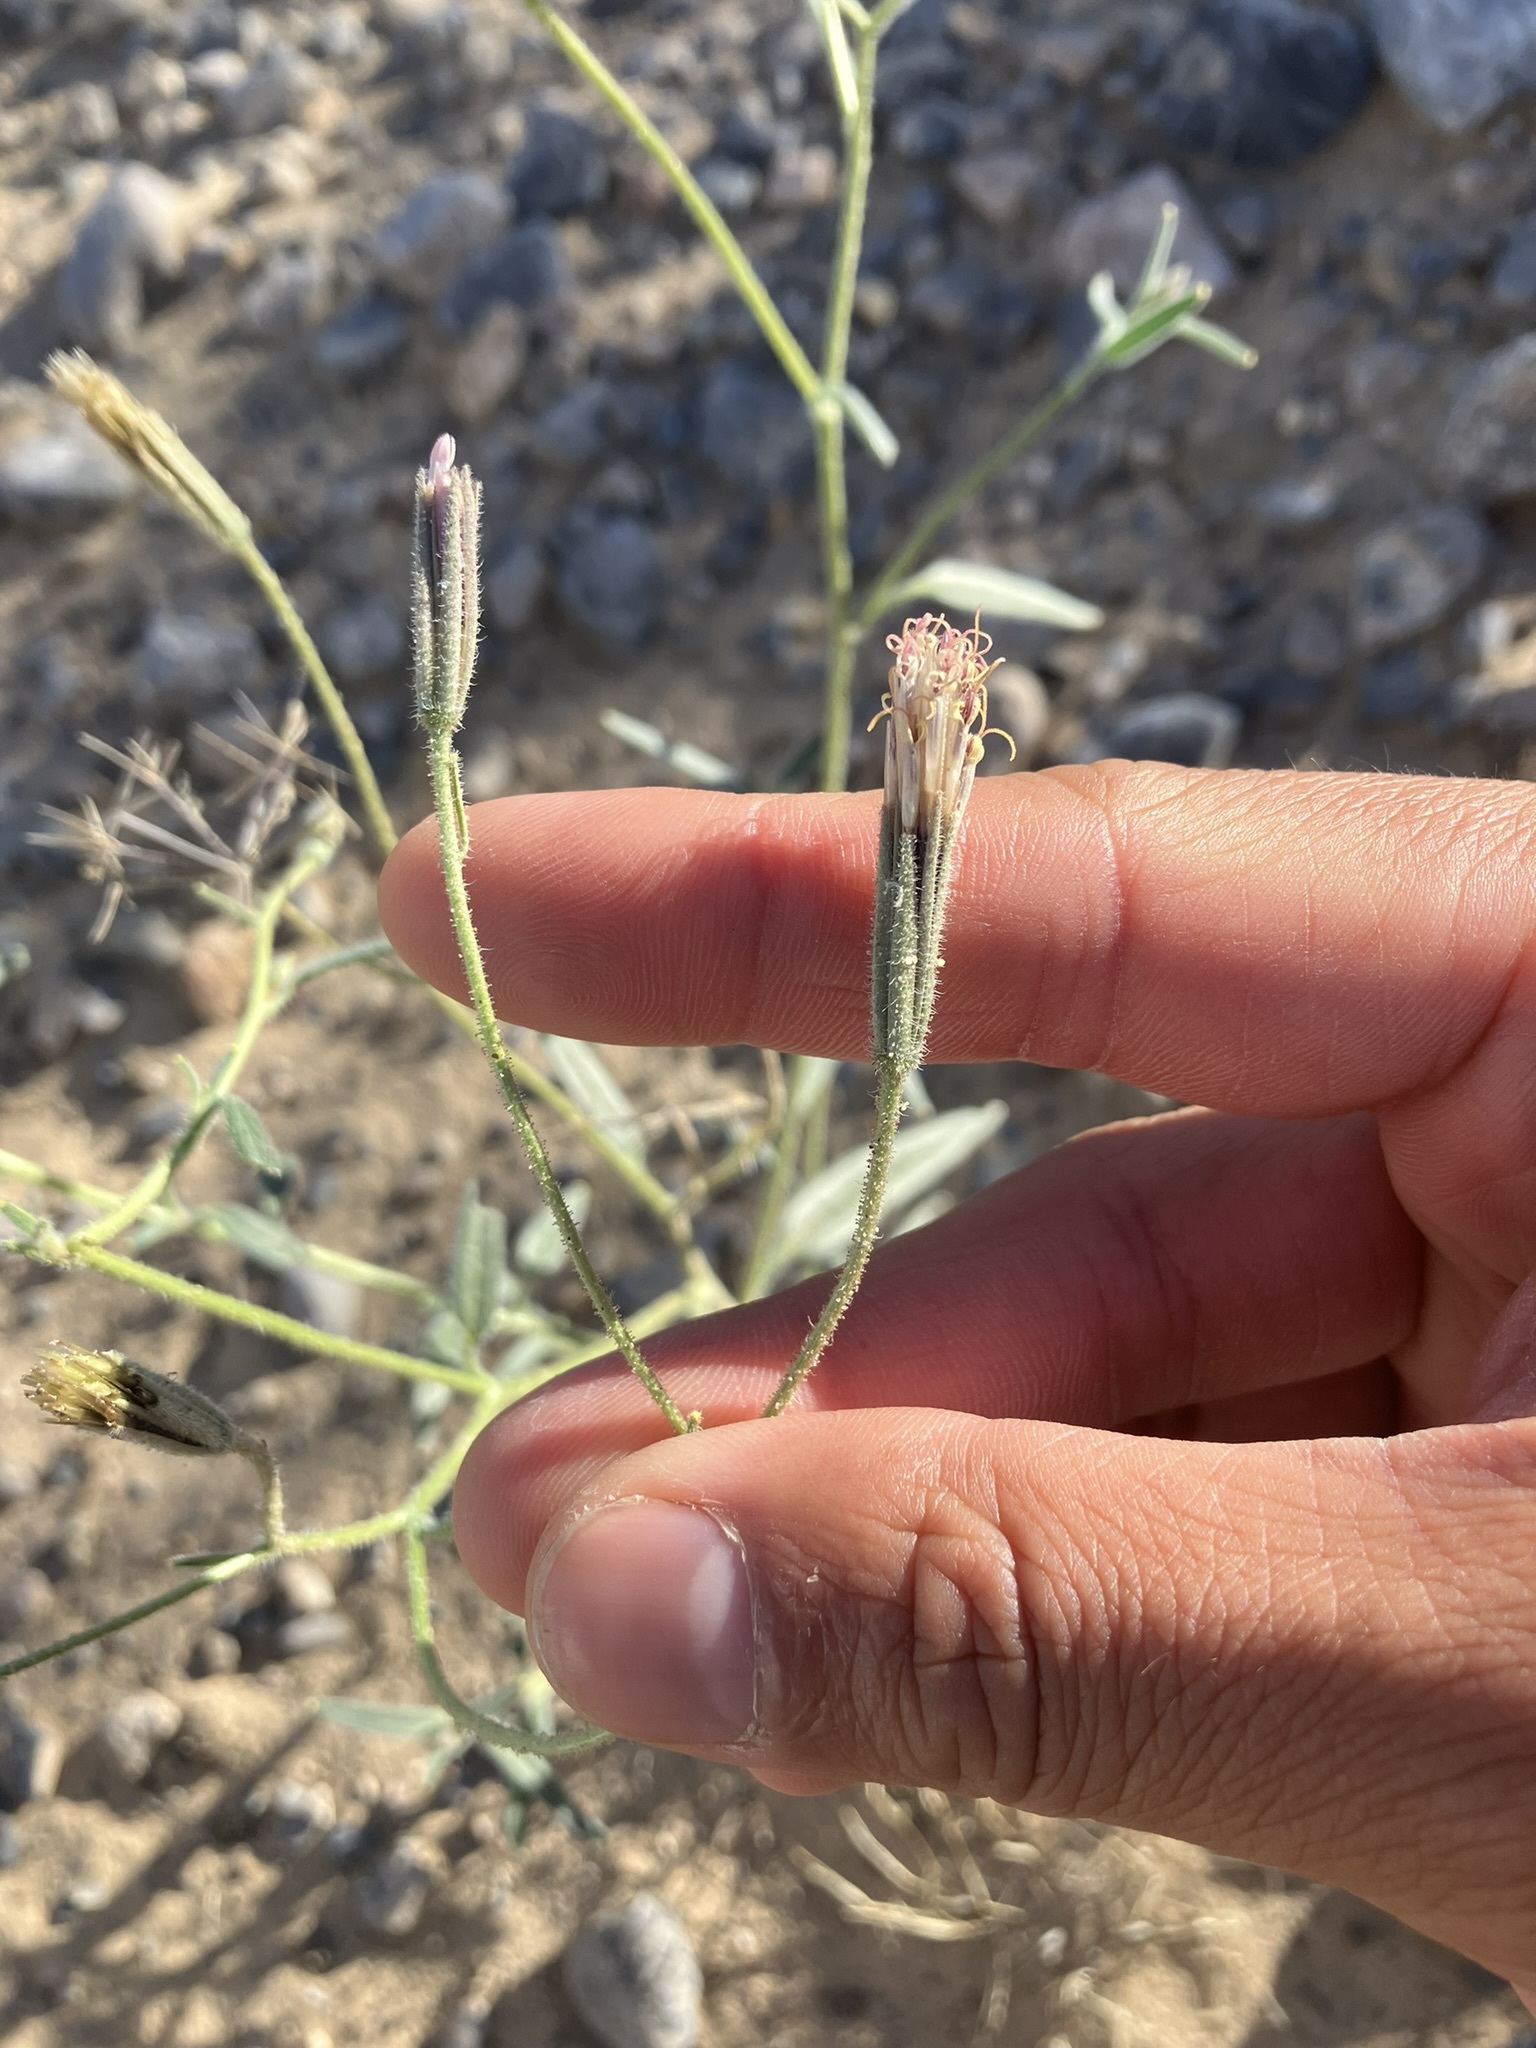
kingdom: Plantae
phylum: Tracheophyta
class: Magnoliopsida
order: Asterales
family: Asteraceae
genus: Palafoxia
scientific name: Palafoxia arida
